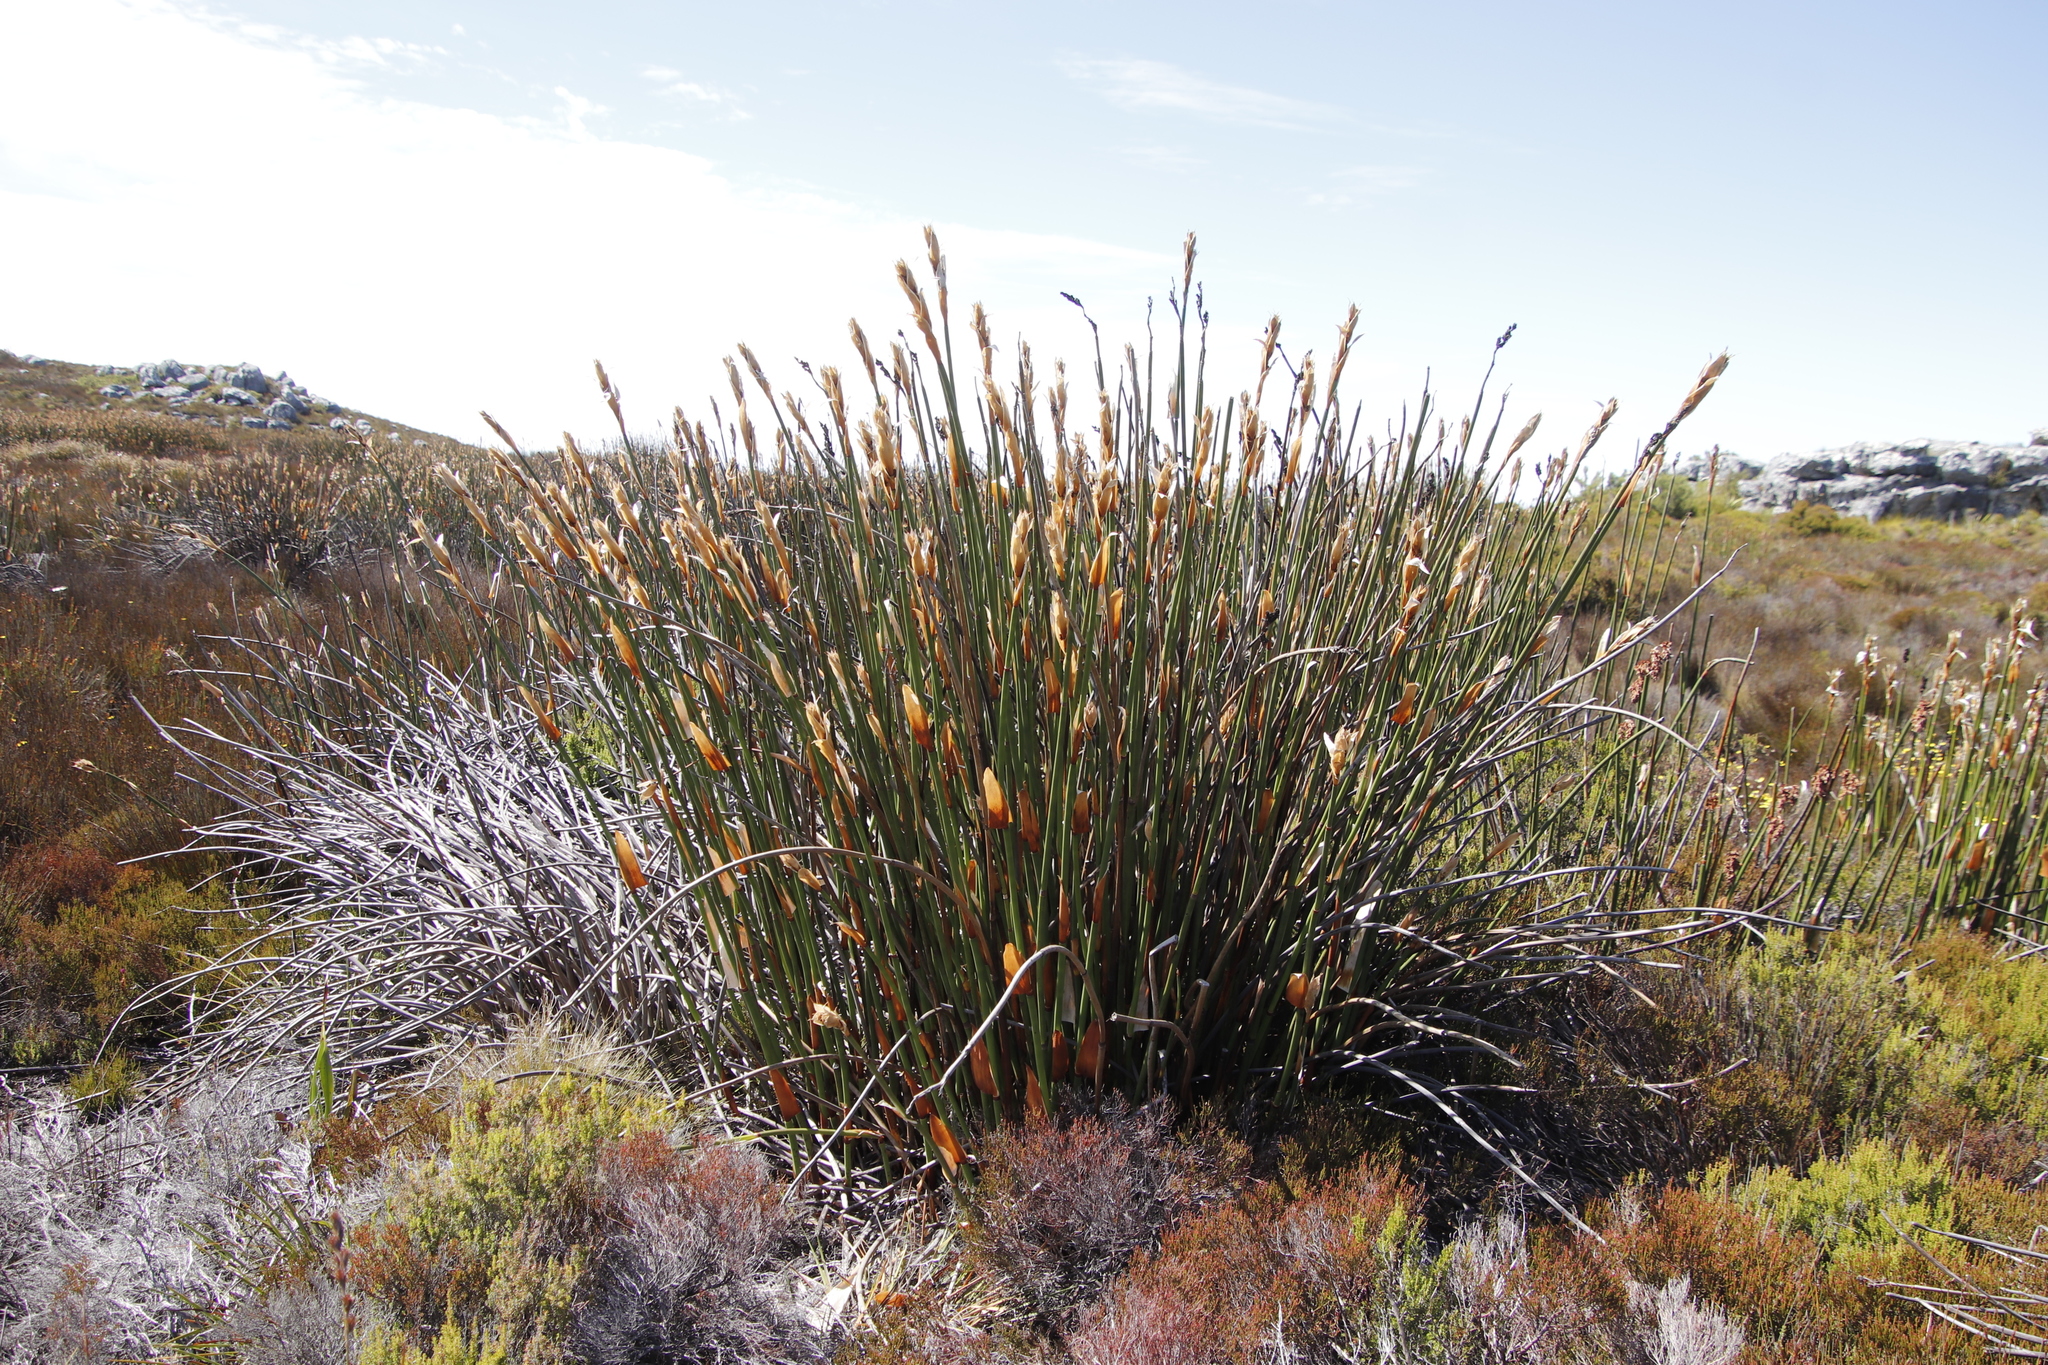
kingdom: Plantae
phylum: Tracheophyta
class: Liliopsida
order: Poales
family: Restionaceae
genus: Elegia
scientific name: Elegia mucronata
